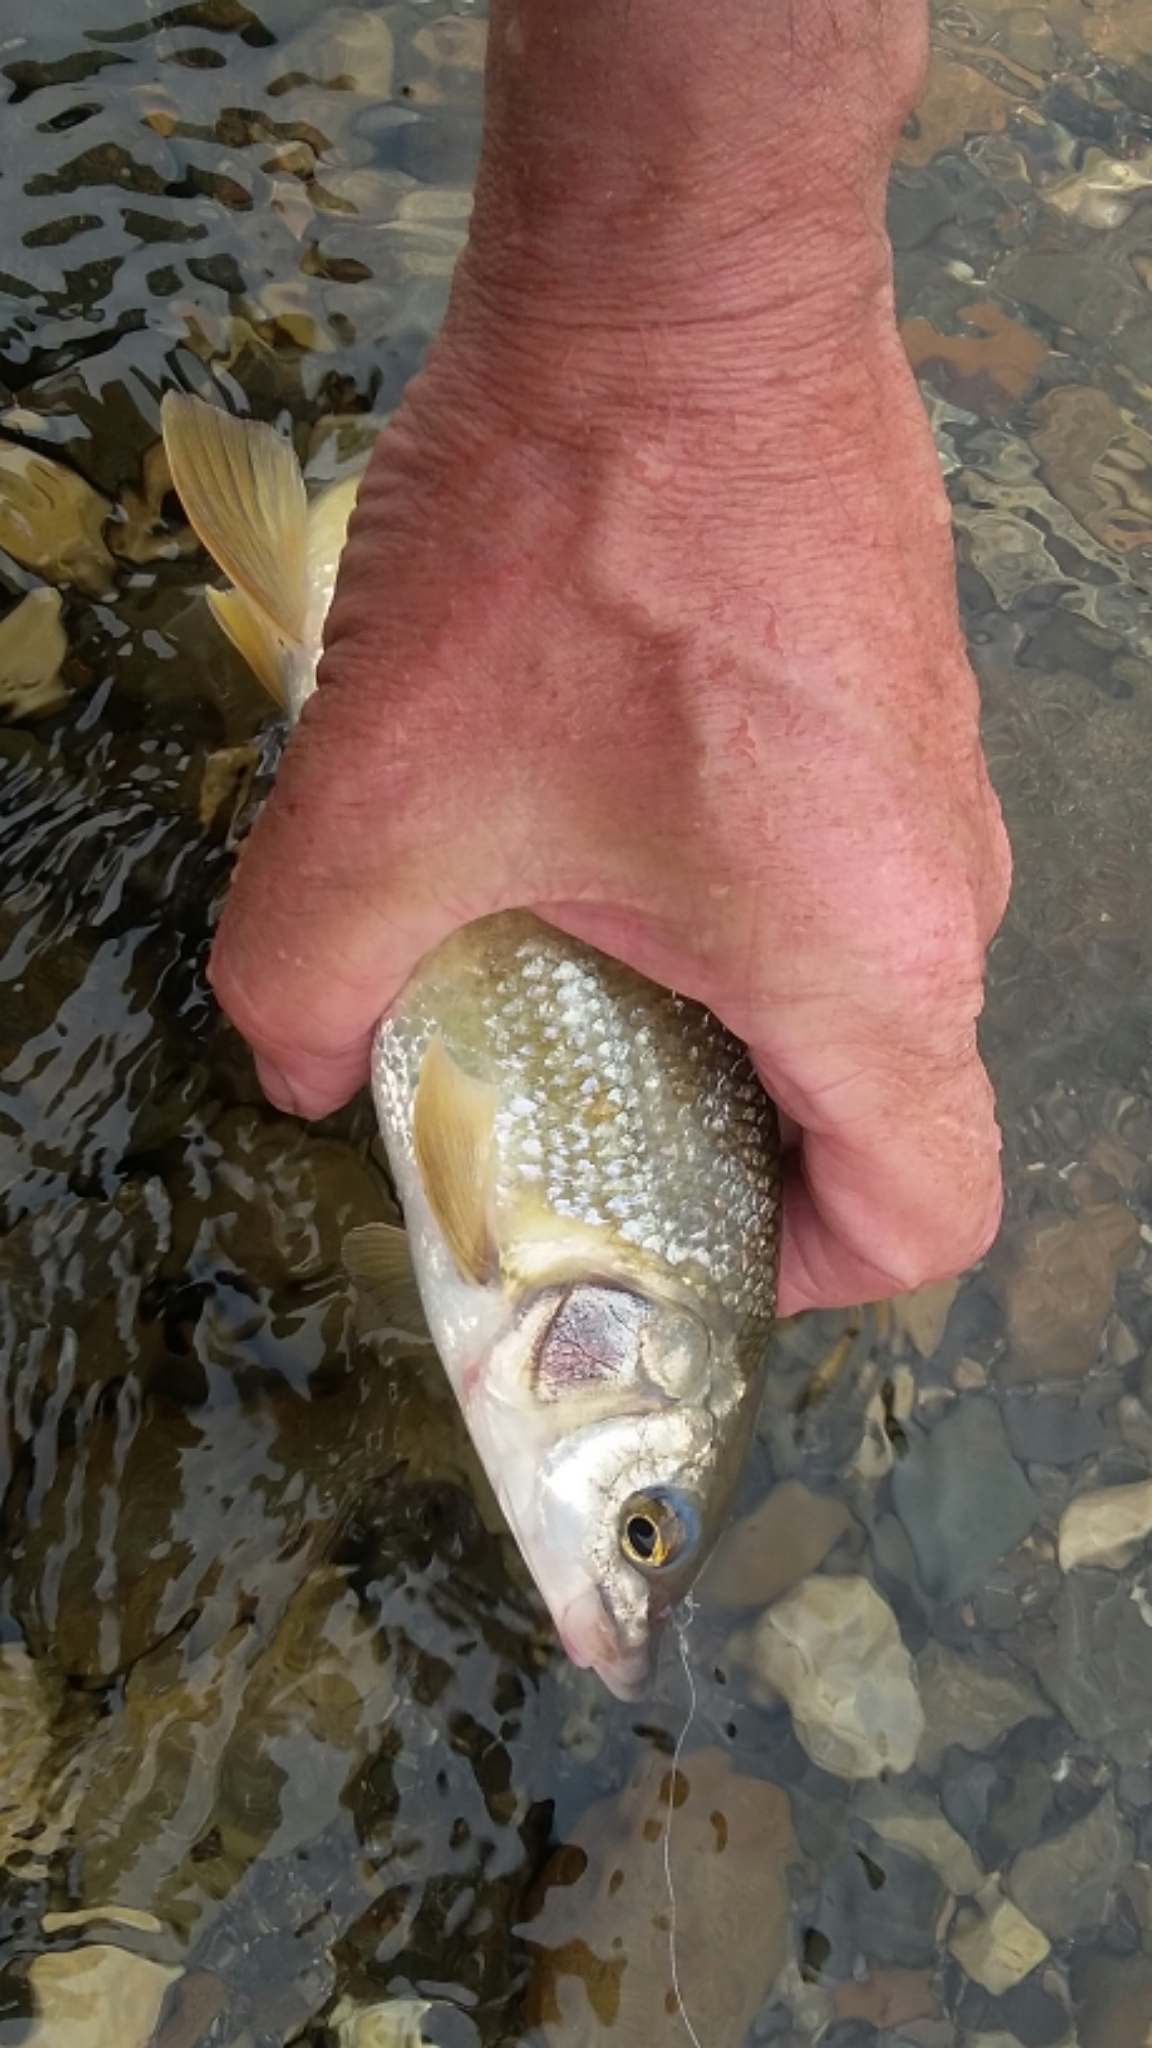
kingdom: Animalia
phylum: Chordata
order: Salmoniformes
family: Salmonidae
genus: Prosopium
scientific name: Prosopium williamsoni
